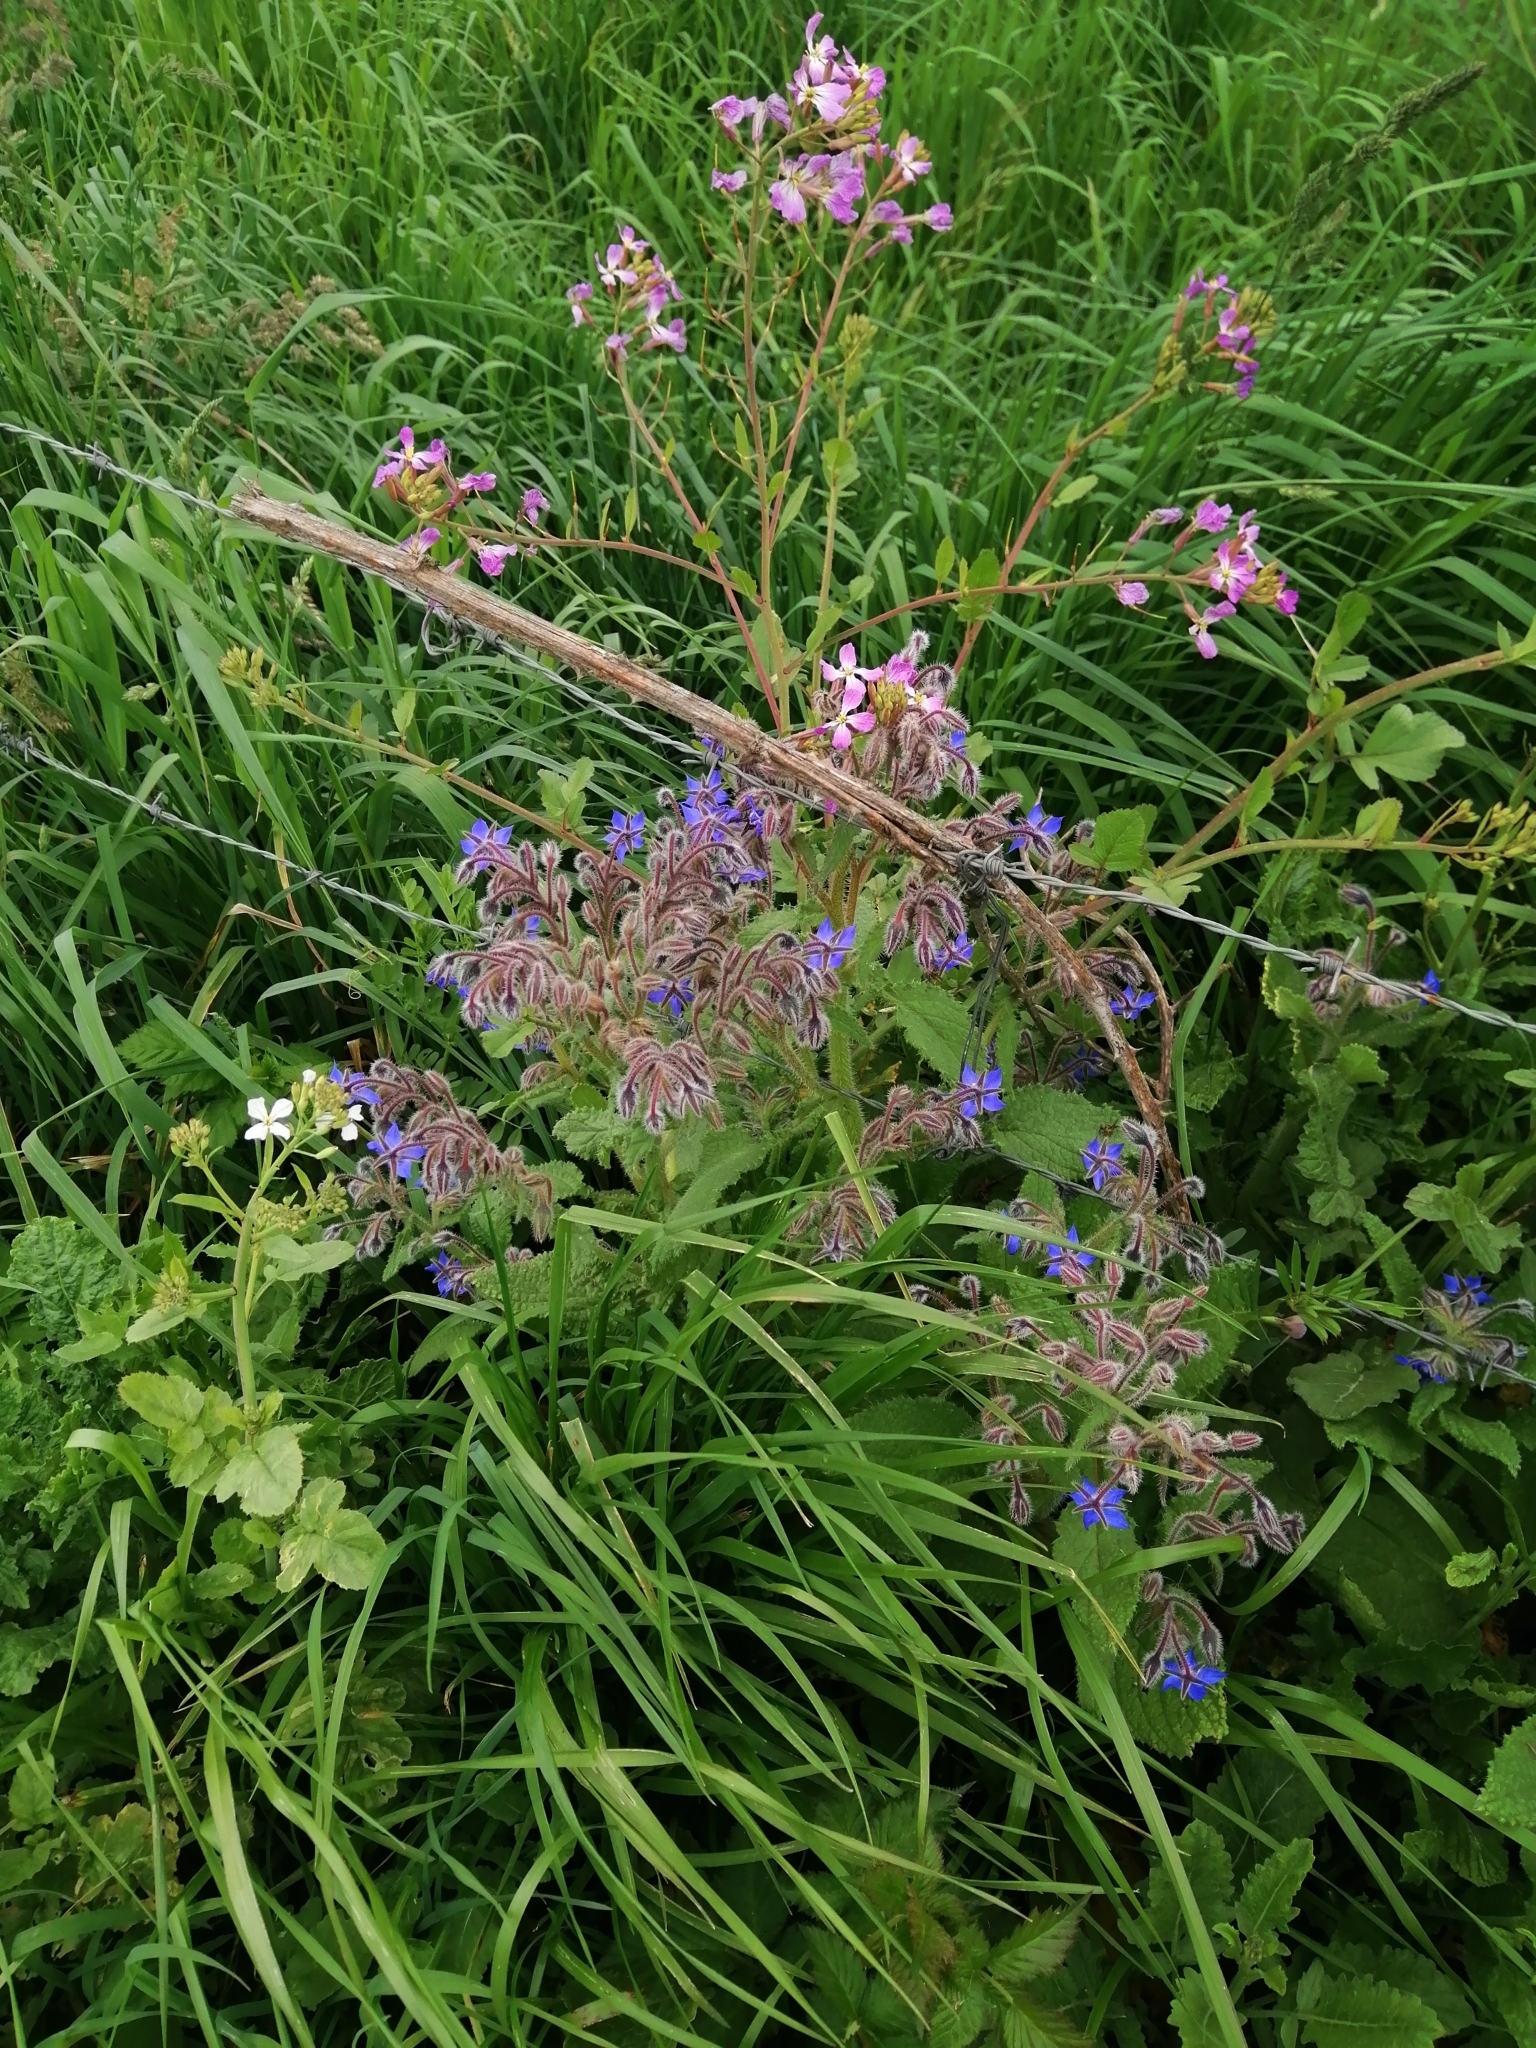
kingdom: Plantae
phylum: Tracheophyta
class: Magnoliopsida
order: Boraginales
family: Boraginaceae
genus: Borago
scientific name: Borago officinalis
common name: Borage
